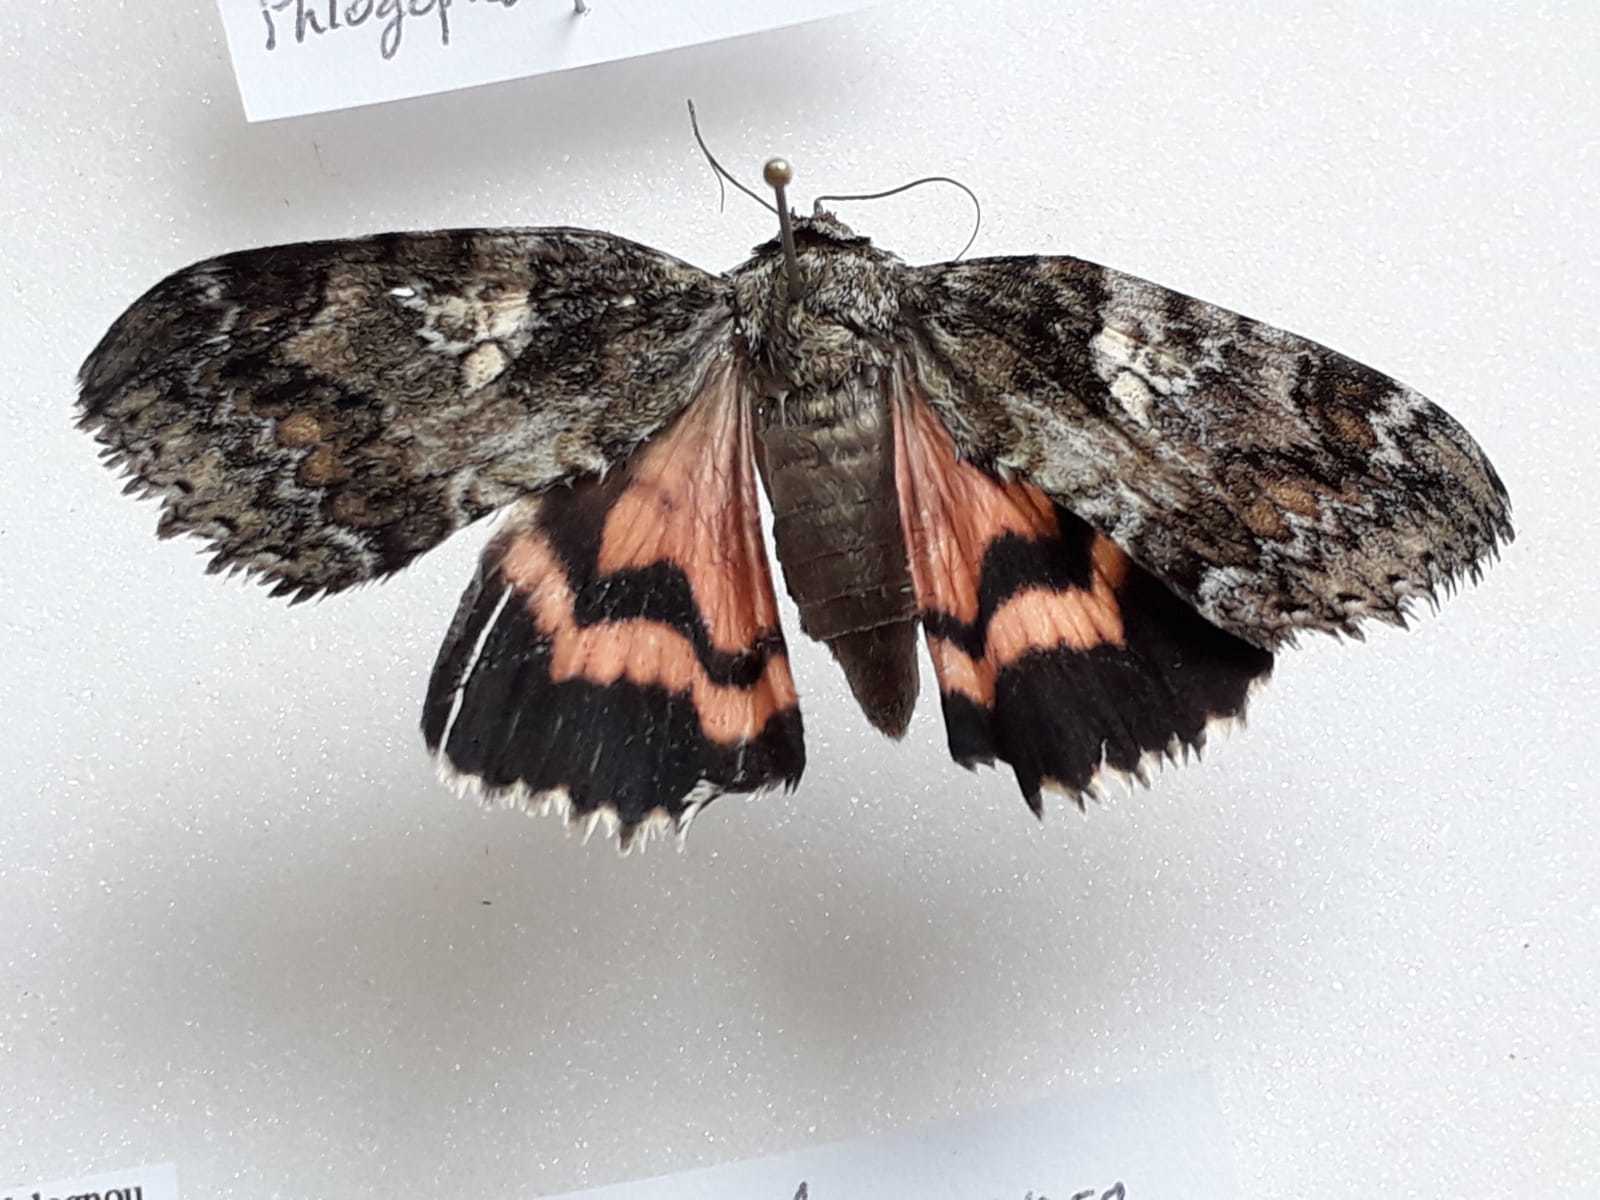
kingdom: Animalia
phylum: Arthropoda
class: Insecta
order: Lepidoptera
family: Erebidae
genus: Catocala
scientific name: Catocala sponsa
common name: Dark crimson underwing
